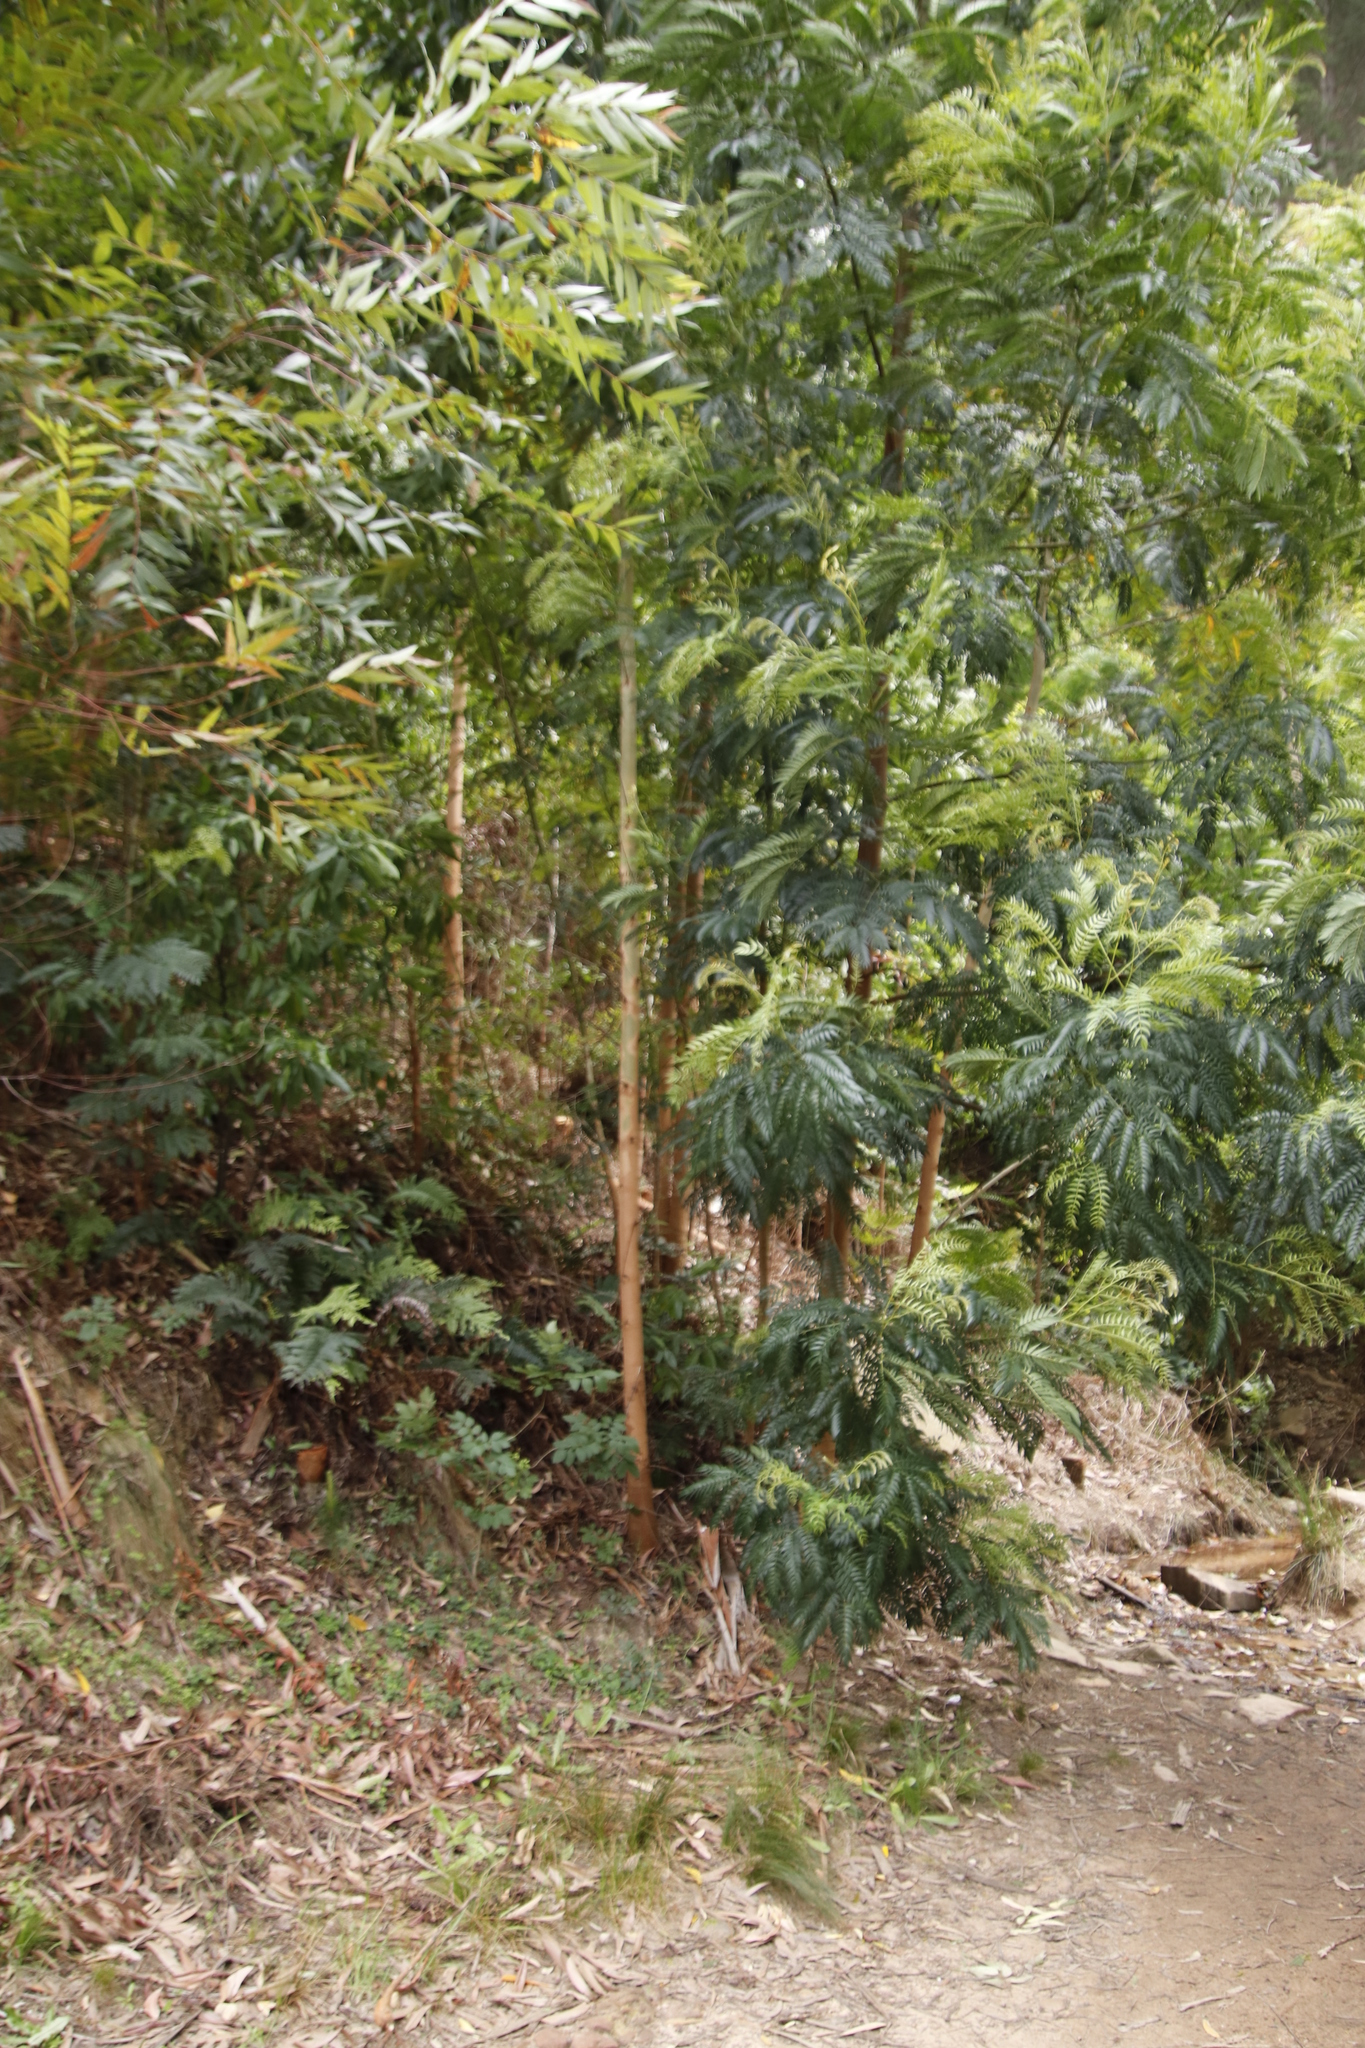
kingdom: Plantae
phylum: Tracheophyta
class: Magnoliopsida
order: Fabales
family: Fabaceae
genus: Acacia
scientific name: Acacia elata
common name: Cedar wattle
